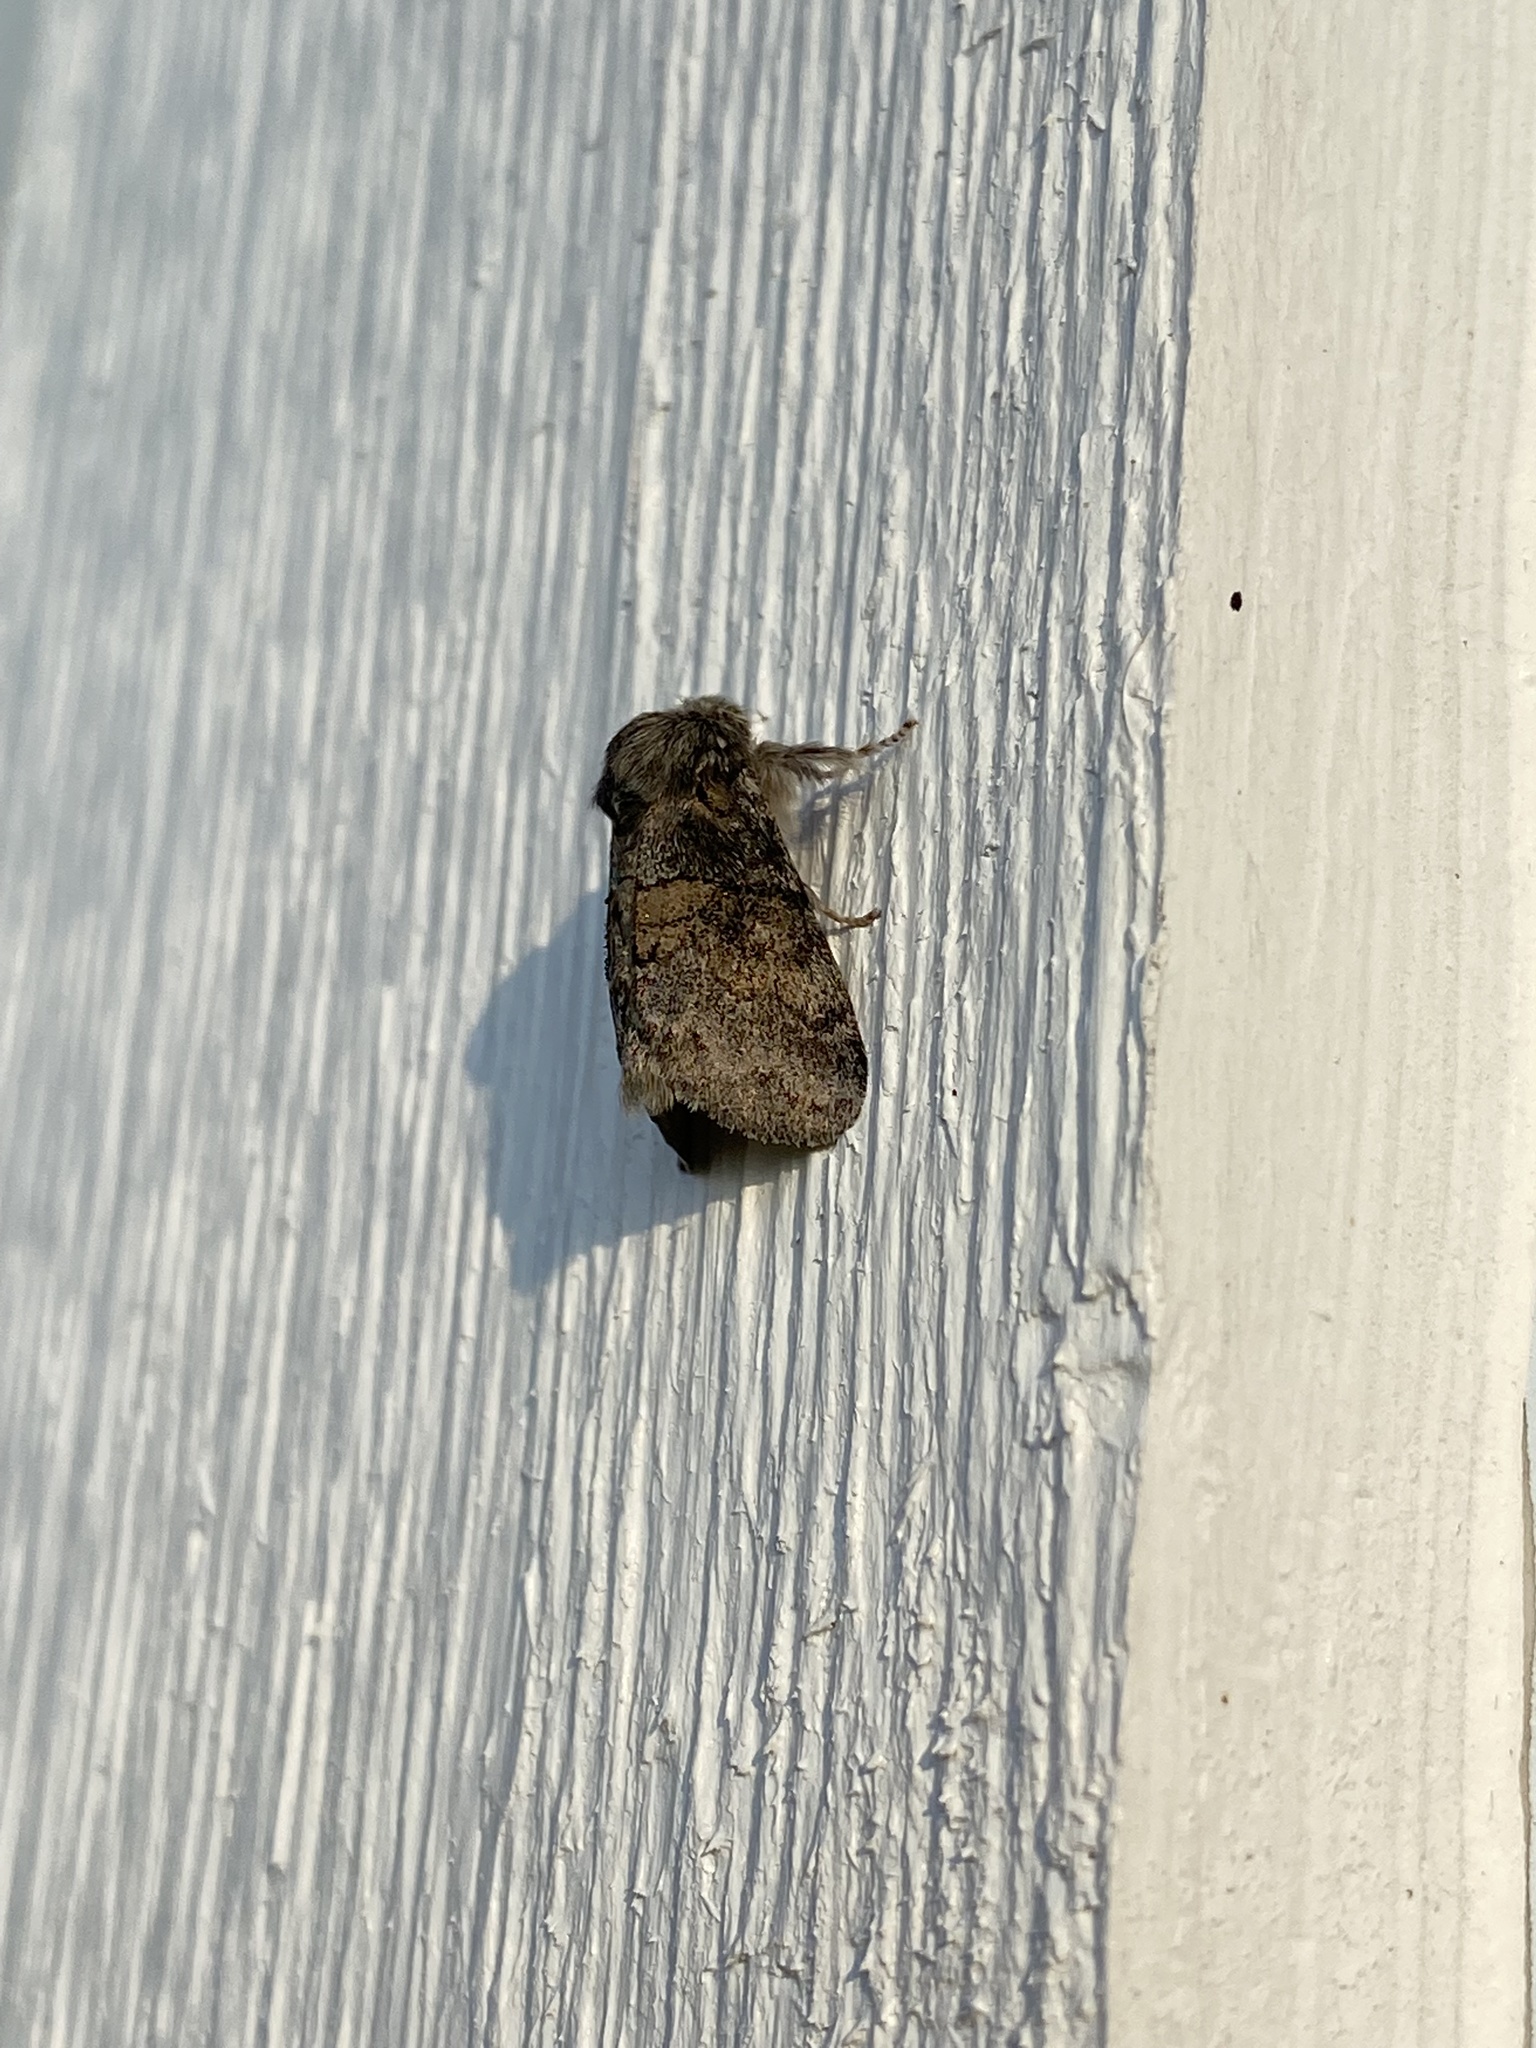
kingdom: Animalia
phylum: Arthropoda
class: Insecta
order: Lepidoptera
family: Notodontidae
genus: Gluphisia
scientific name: Gluphisia septentrionis
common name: Common gluphisia
